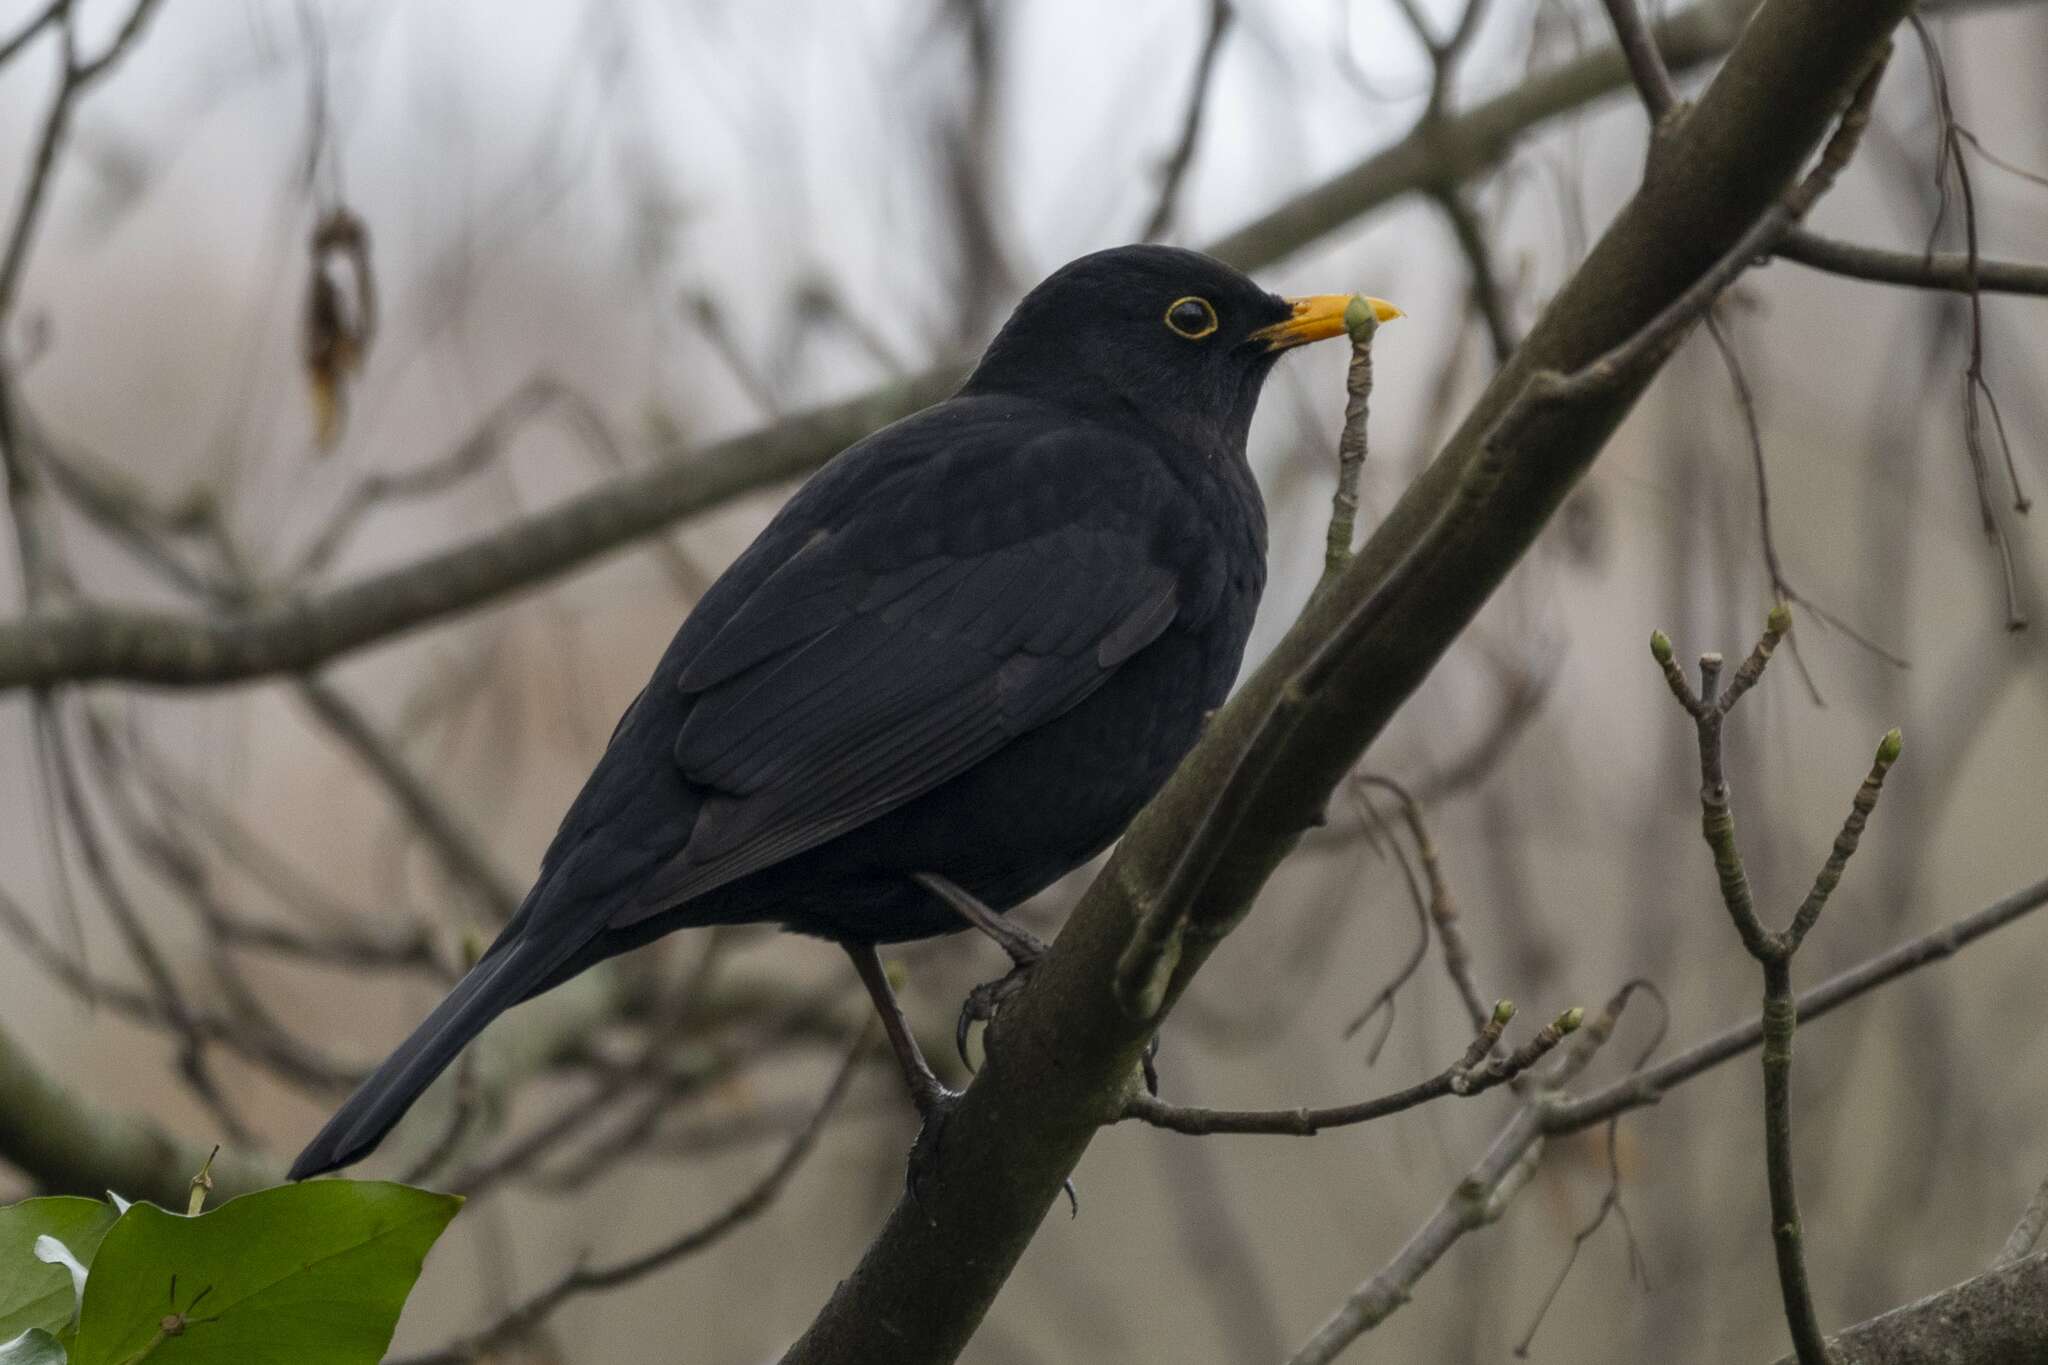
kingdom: Animalia
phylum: Chordata
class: Aves
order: Passeriformes
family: Turdidae
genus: Turdus
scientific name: Turdus merula
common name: Common blackbird
